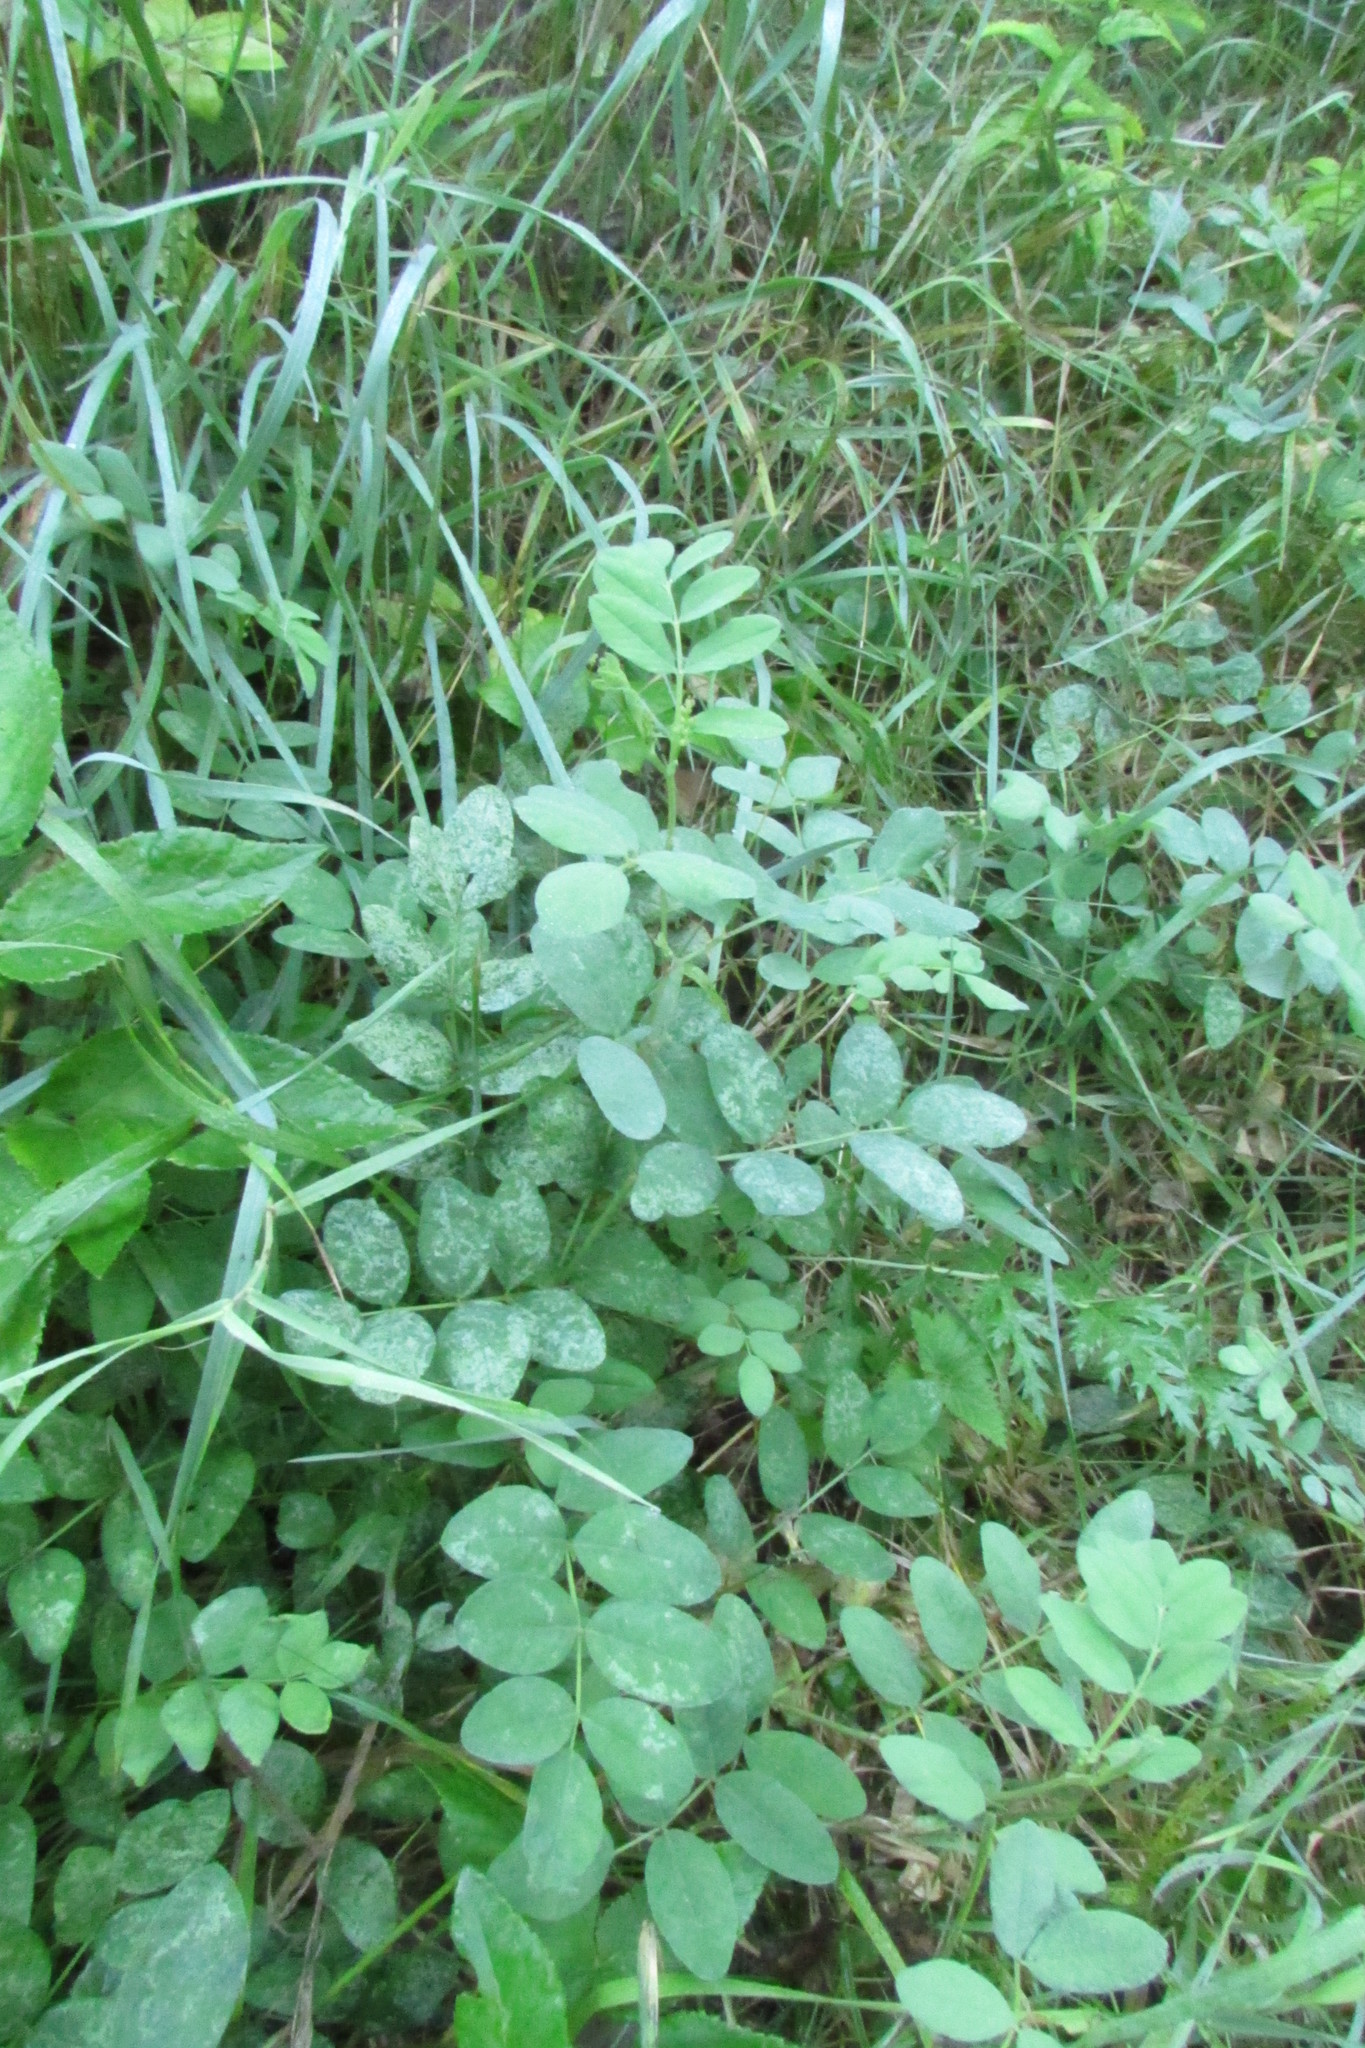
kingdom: Plantae
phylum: Tracheophyta
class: Magnoliopsida
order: Fabales
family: Fabaceae
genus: Astragalus
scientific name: Astragalus glycyphyllos
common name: Wild liquorice
